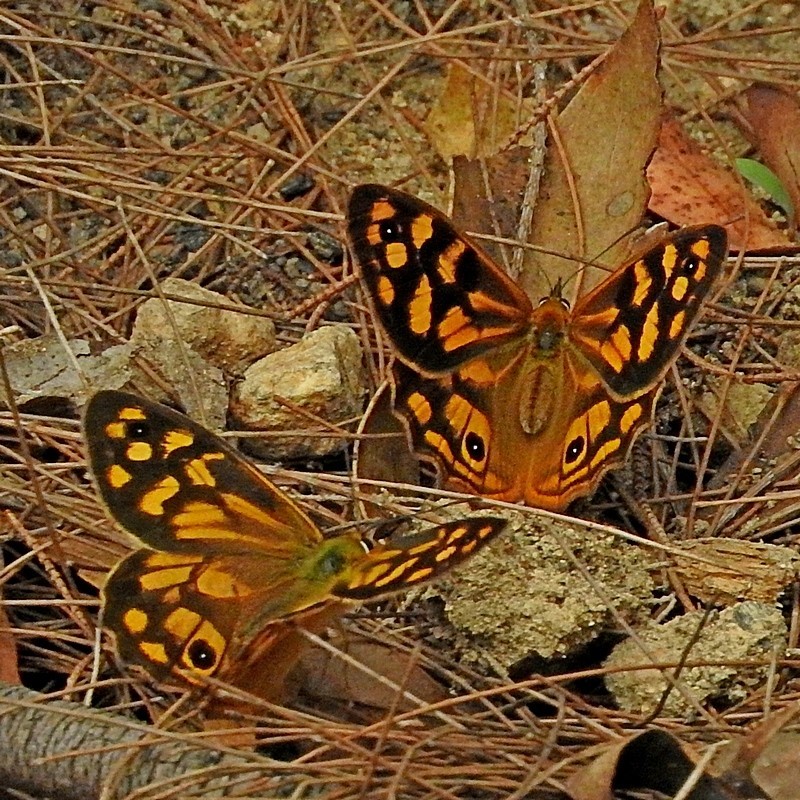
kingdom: Animalia
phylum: Arthropoda
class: Insecta
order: Lepidoptera
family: Nymphalidae
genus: Heteronympha
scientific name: Heteronympha paradelpha
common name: Spotted brown
